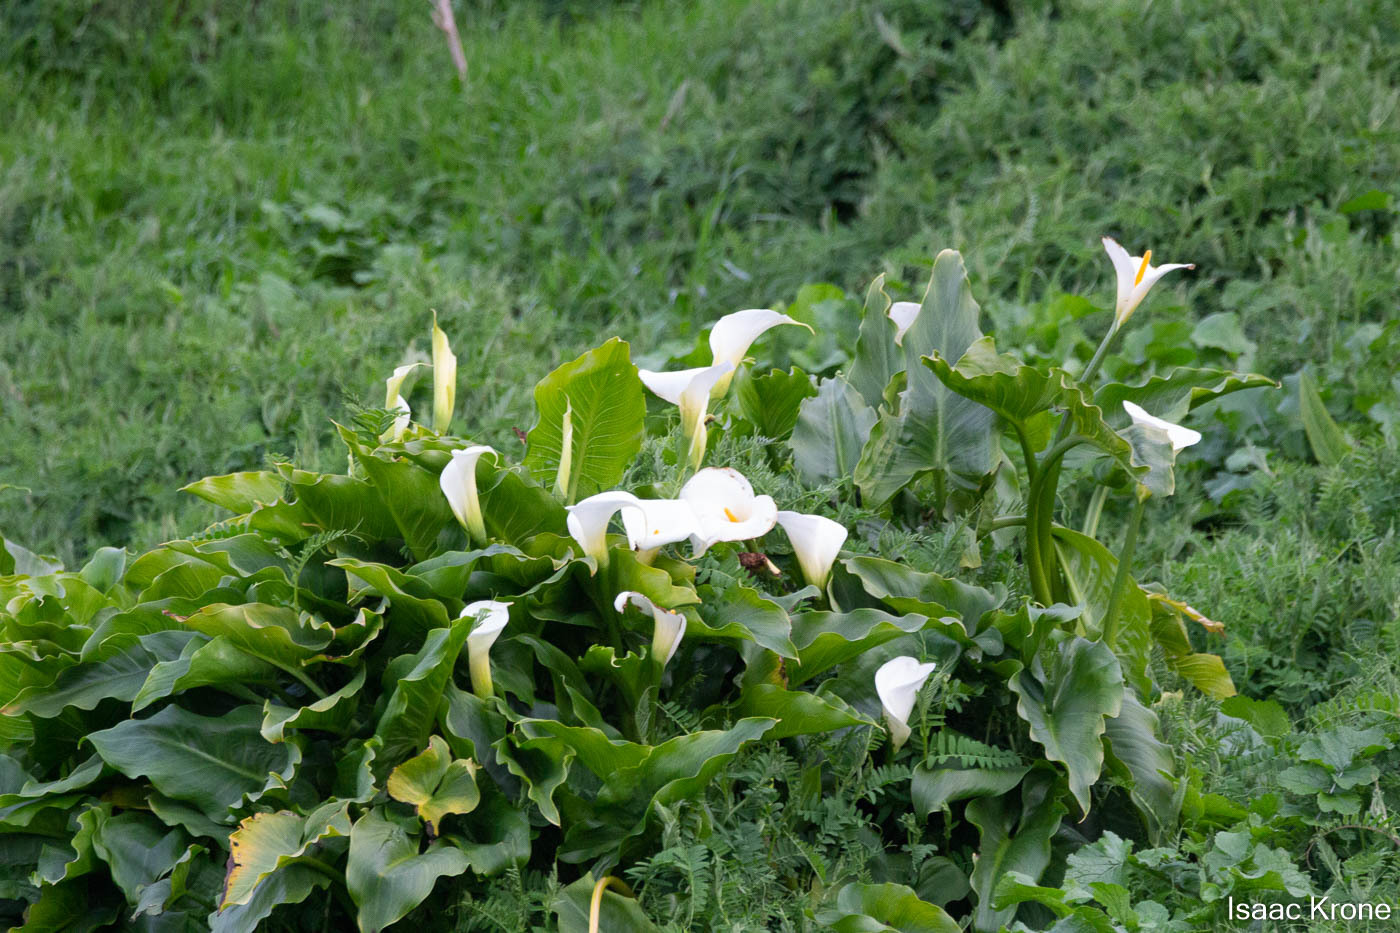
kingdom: Plantae
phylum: Tracheophyta
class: Liliopsida
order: Alismatales
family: Araceae
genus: Zantedeschia
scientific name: Zantedeschia aethiopica
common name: Altar-lily
